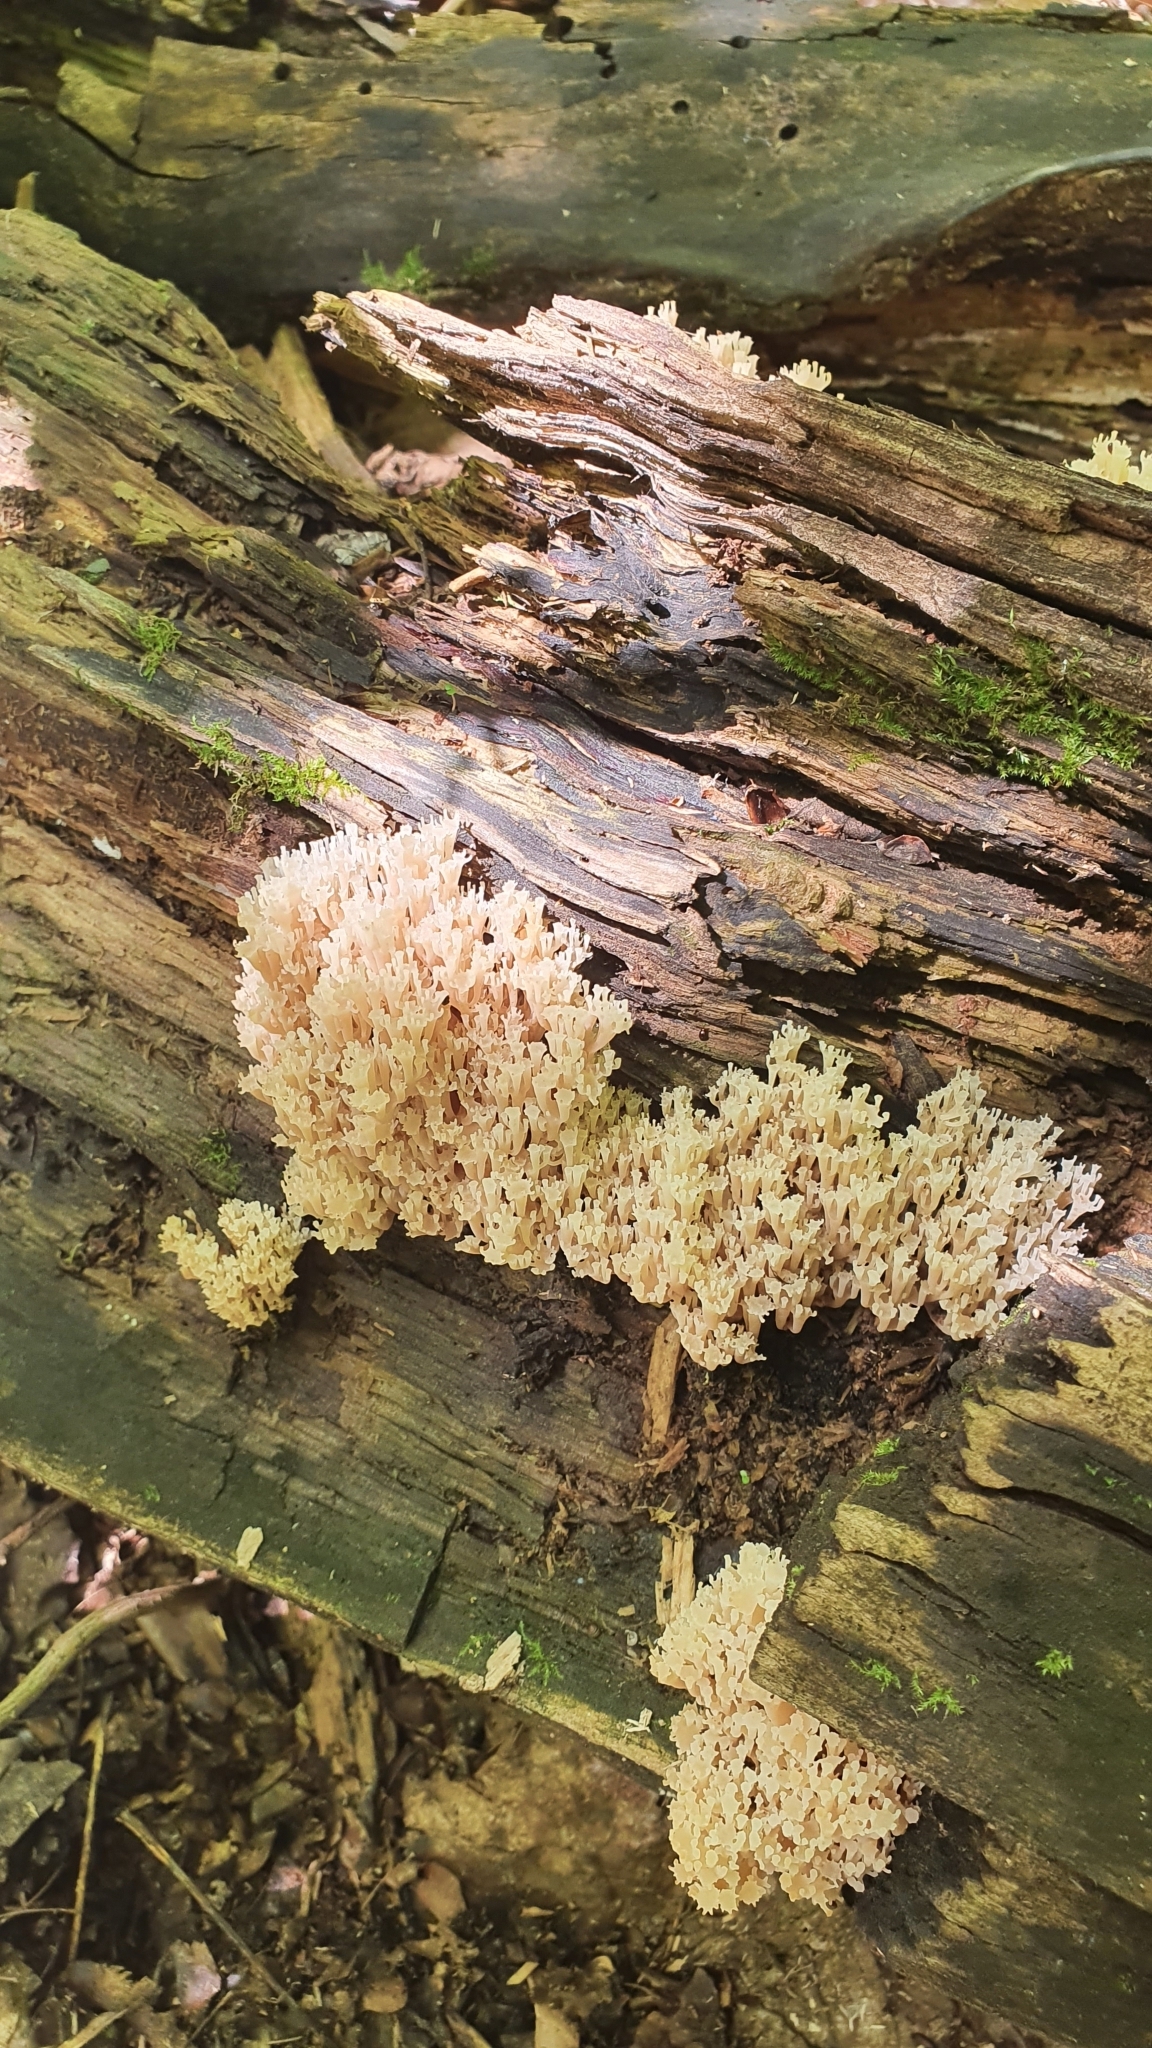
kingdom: Fungi
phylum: Basidiomycota
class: Agaricomycetes
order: Russulales
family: Auriscalpiaceae
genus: Artomyces
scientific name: Artomyces pyxidatus
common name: Crown-tipped coral fungus
